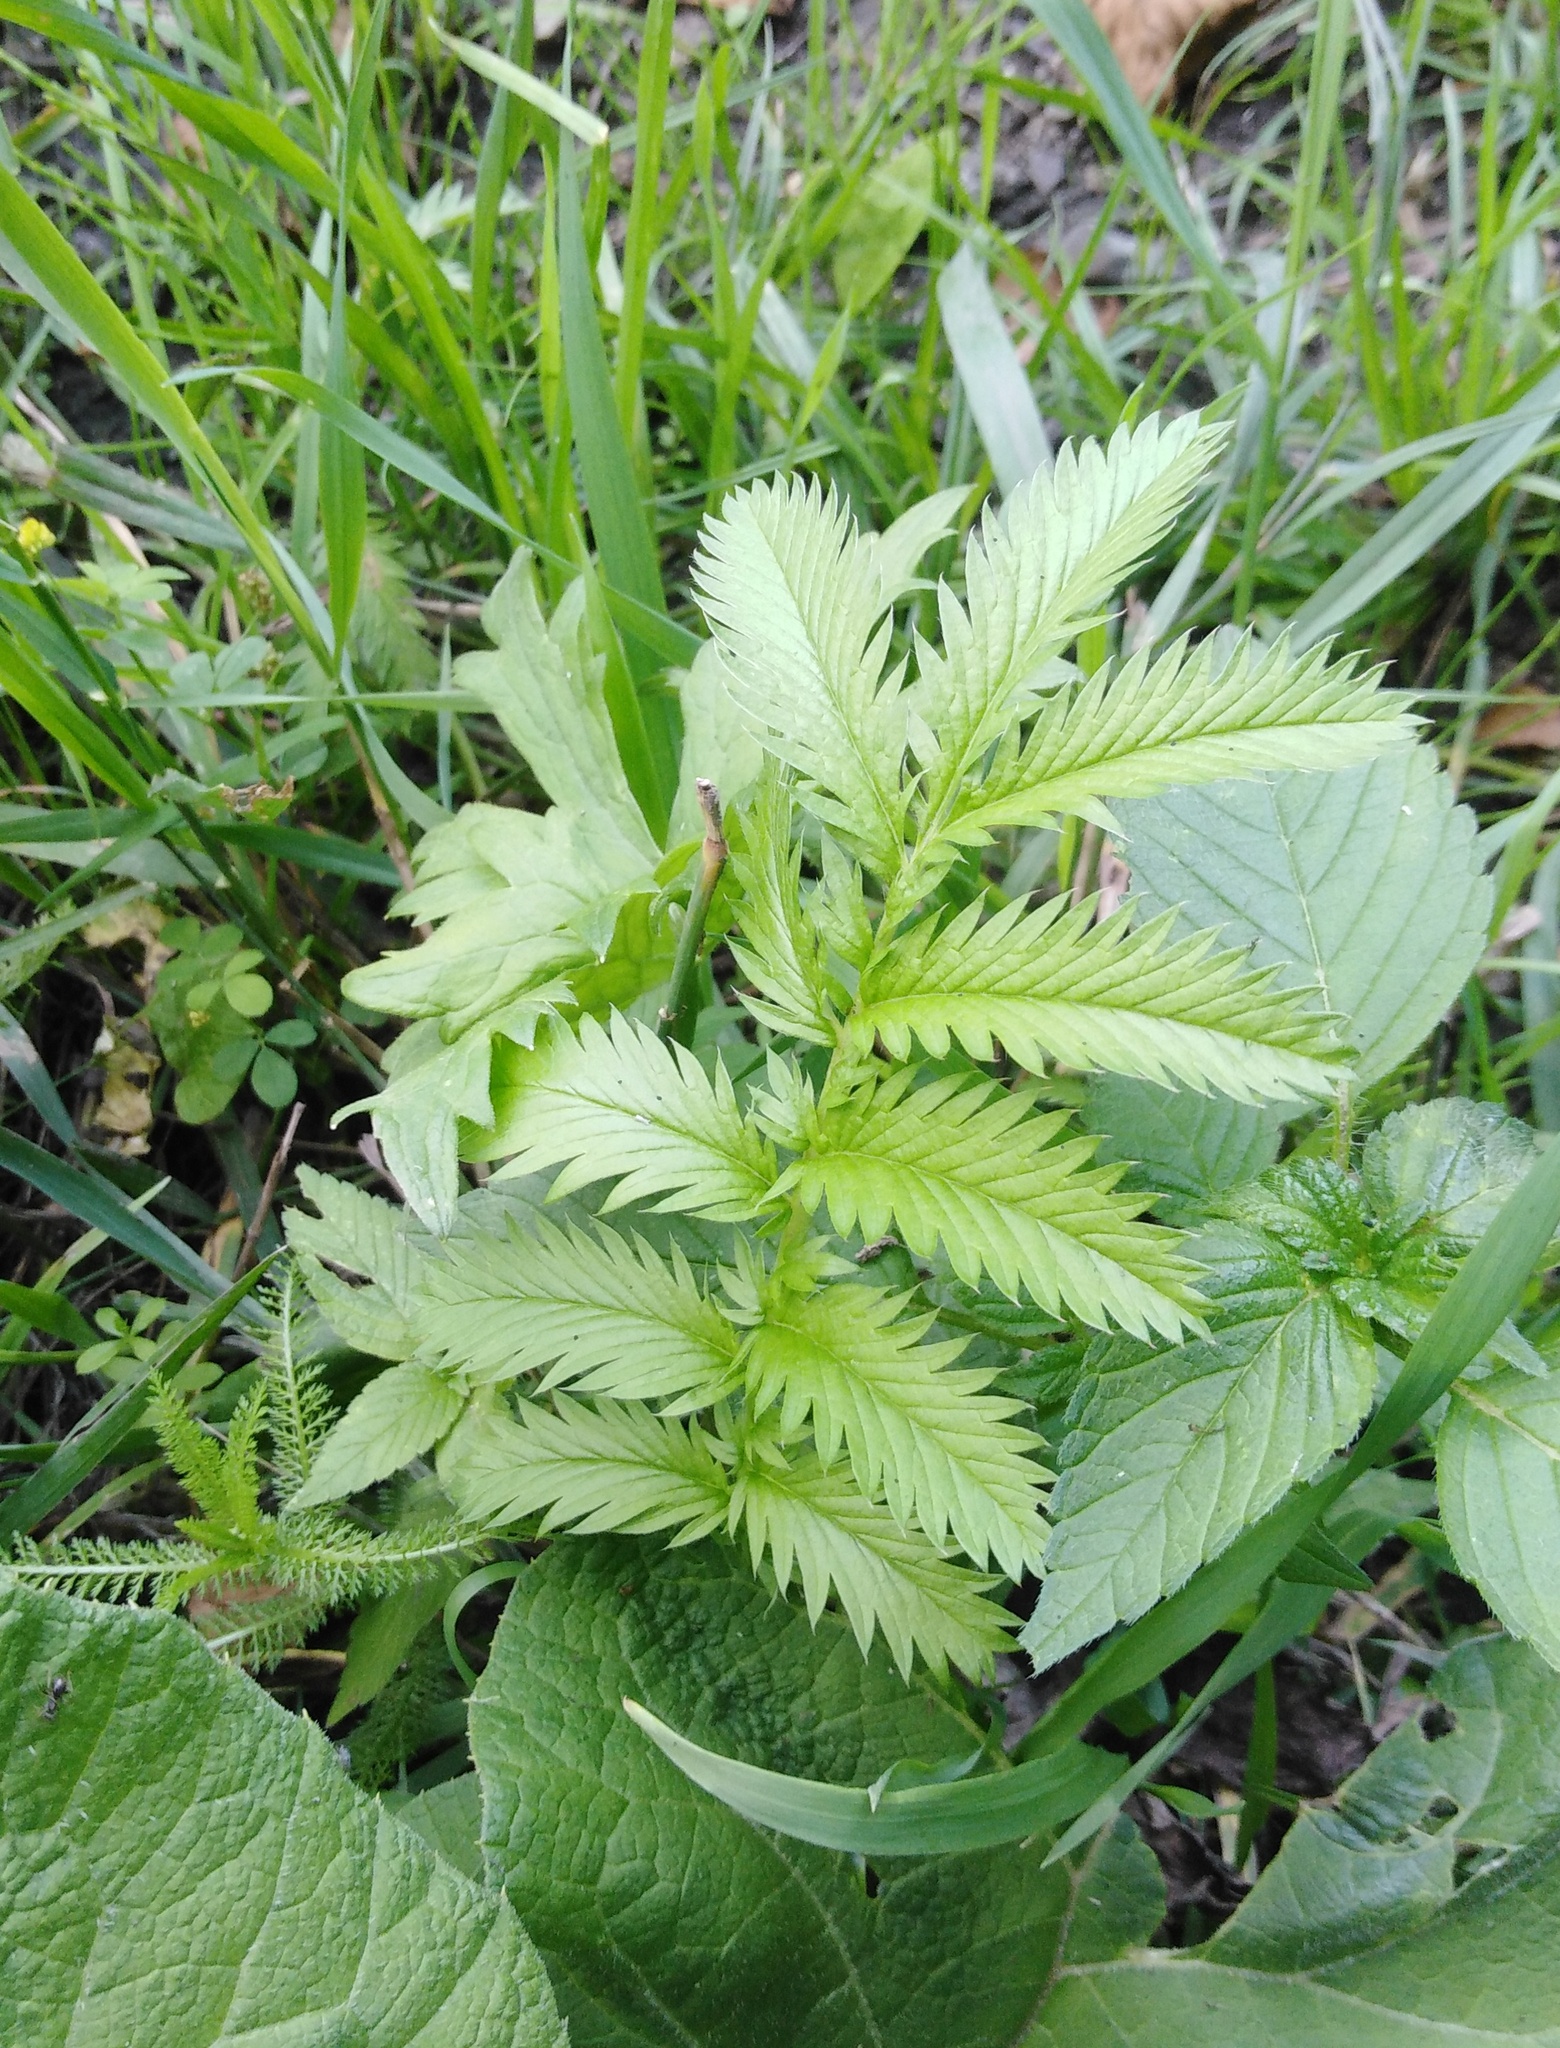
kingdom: Plantae
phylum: Tracheophyta
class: Magnoliopsida
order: Rosales
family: Rosaceae
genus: Argentina
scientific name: Argentina anserina
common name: Common silverweed
